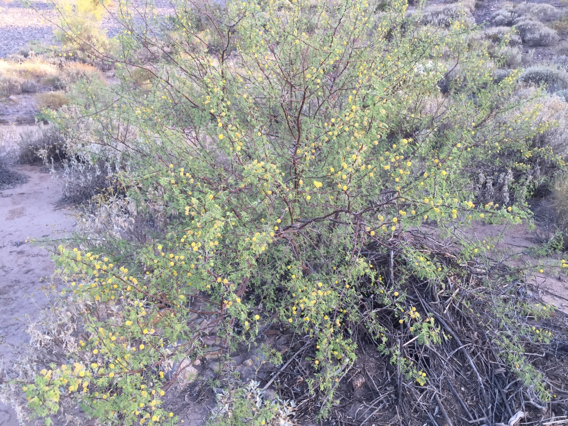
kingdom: Plantae
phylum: Tracheophyta
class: Magnoliopsida
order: Fabales
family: Fabaceae
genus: Vachellia
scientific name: Vachellia constricta
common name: Mescat acacia
